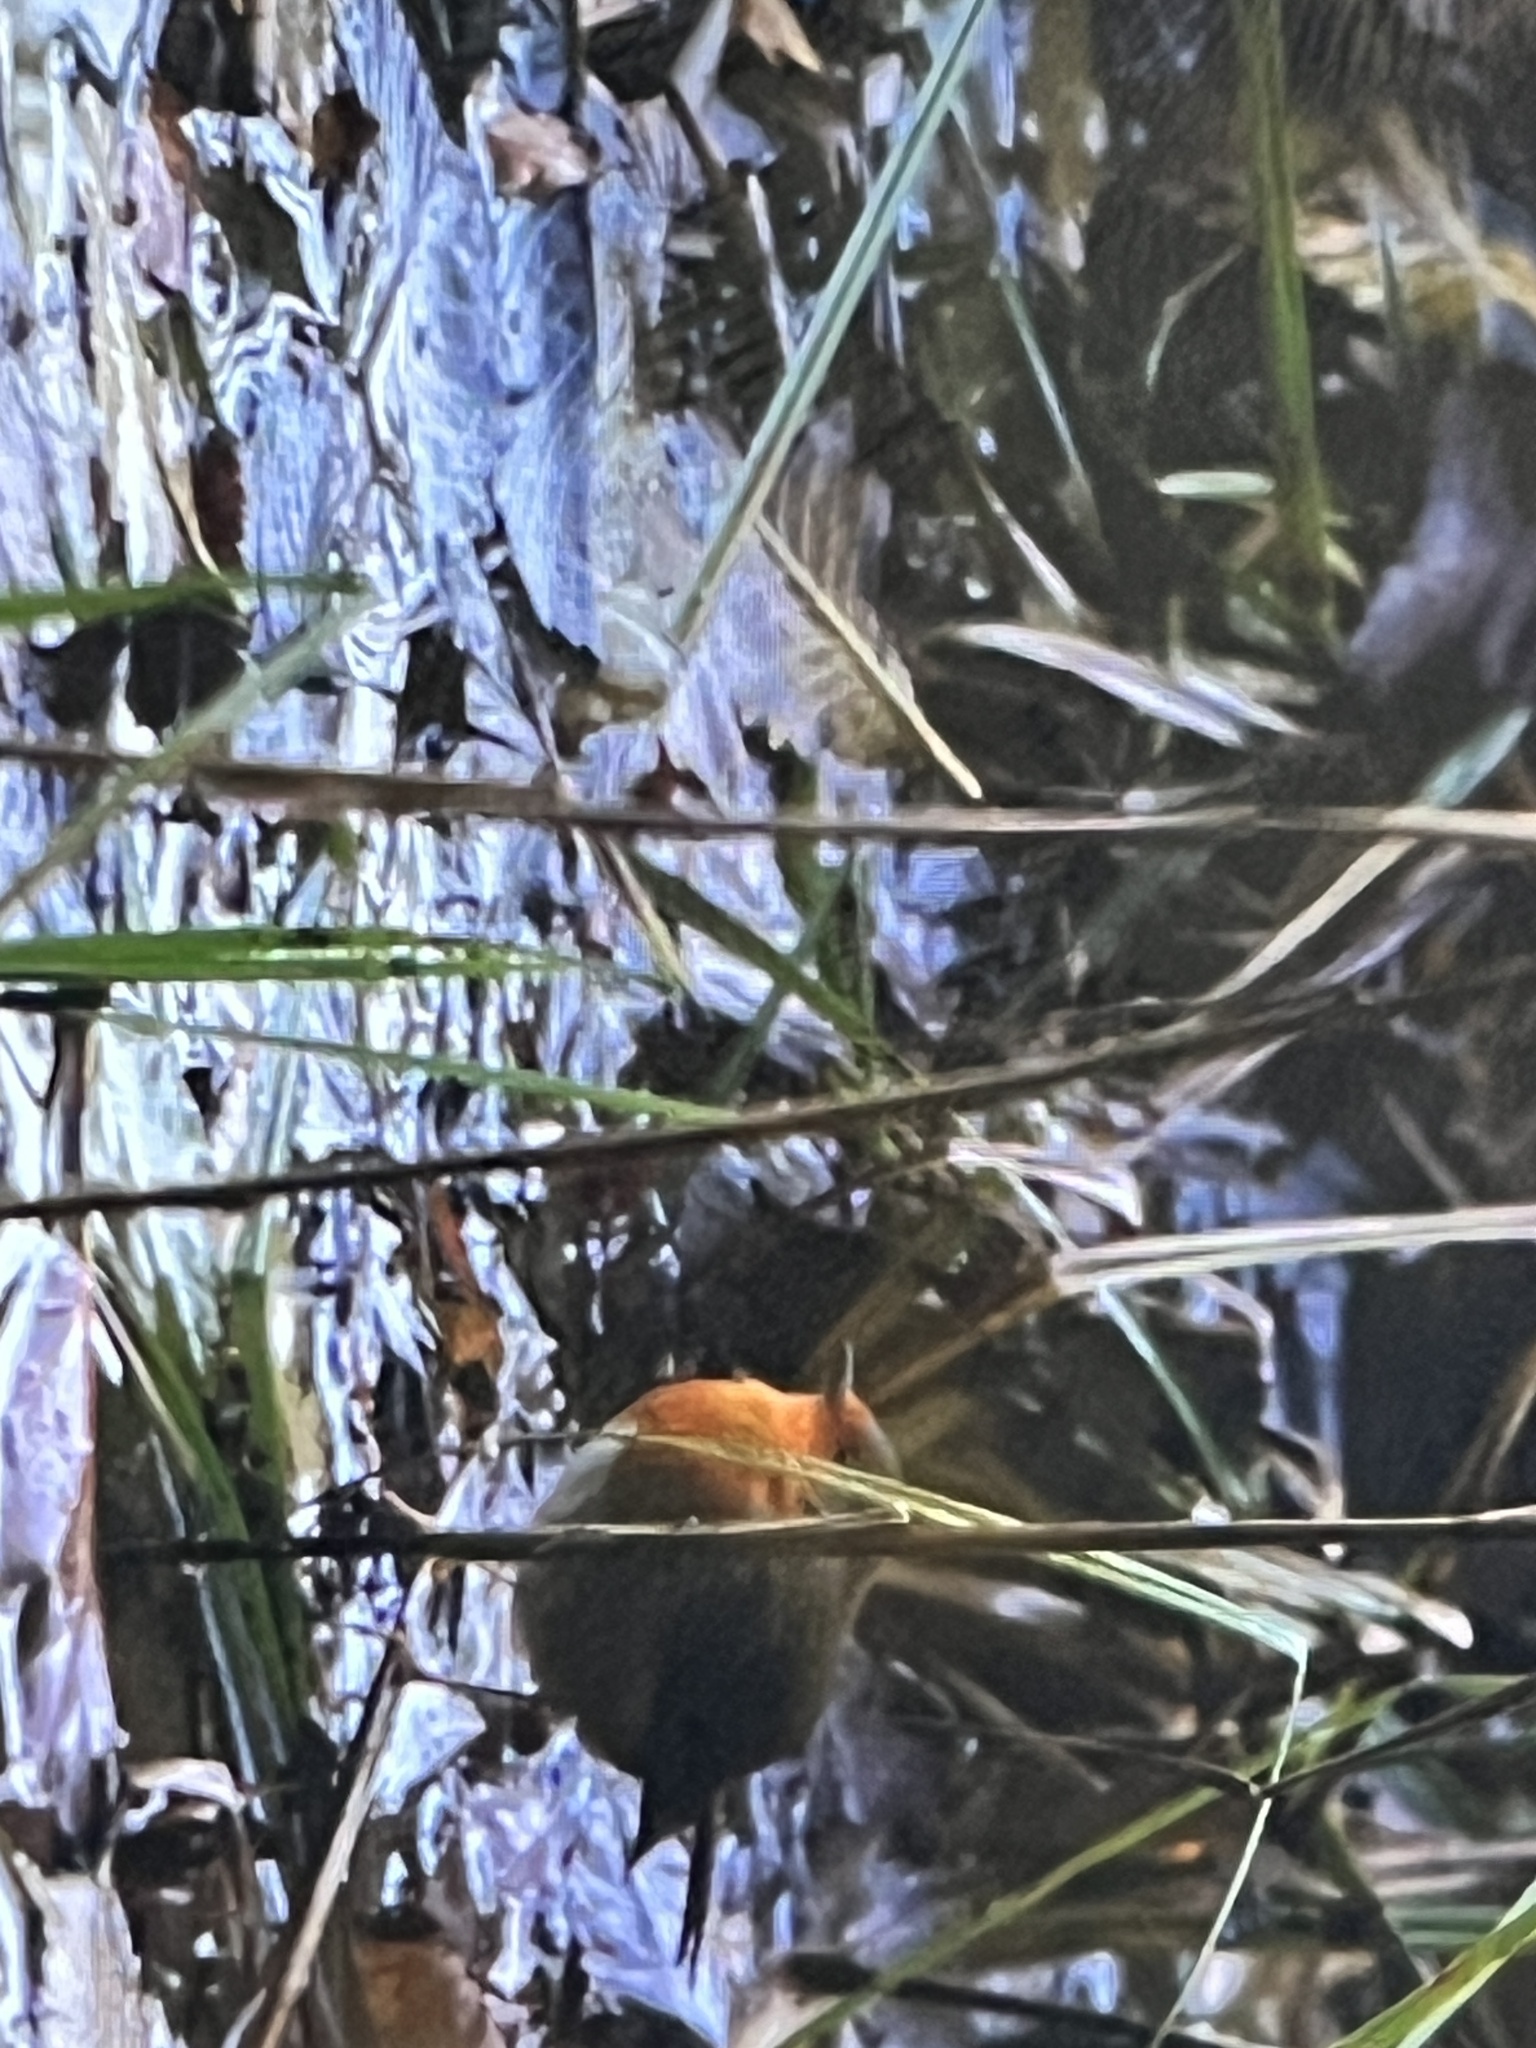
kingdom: Animalia
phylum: Chordata
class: Aves
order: Passeriformes
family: Muscicapidae
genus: Erithacus
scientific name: Erithacus rubecula
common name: European robin
